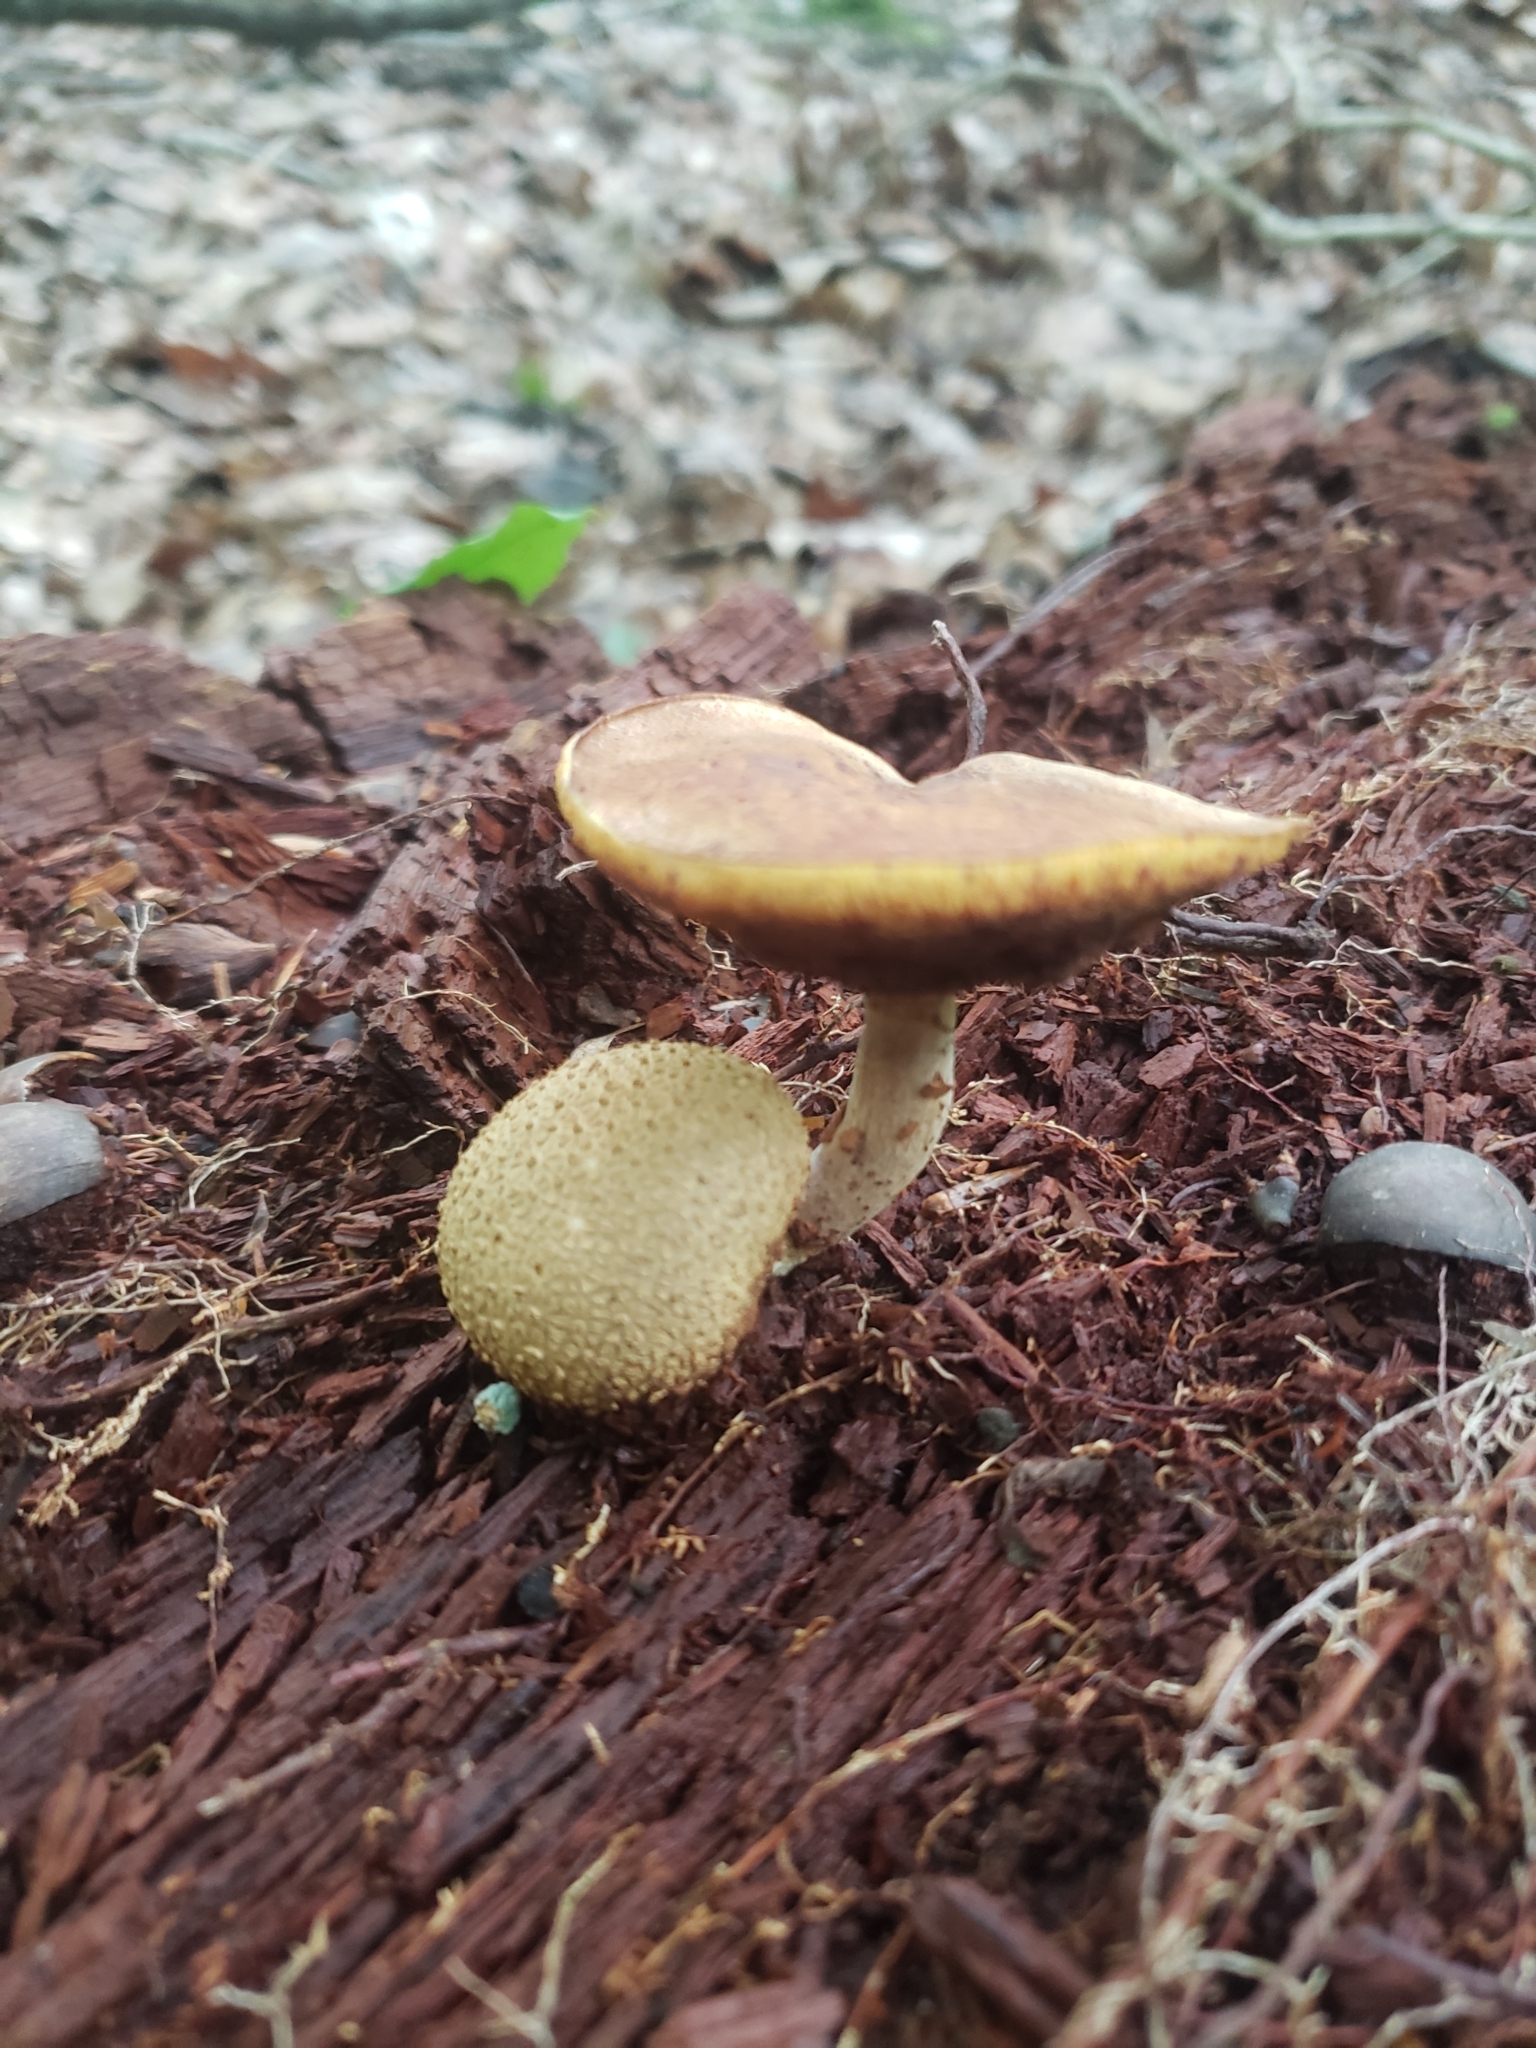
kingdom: Fungi
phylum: Basidiomycota
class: Agaricomycetes
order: Boletales
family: Boletaceae
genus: Pseudoboletus
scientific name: Pseudoboletus parasiticus
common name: Parasitic bolete
